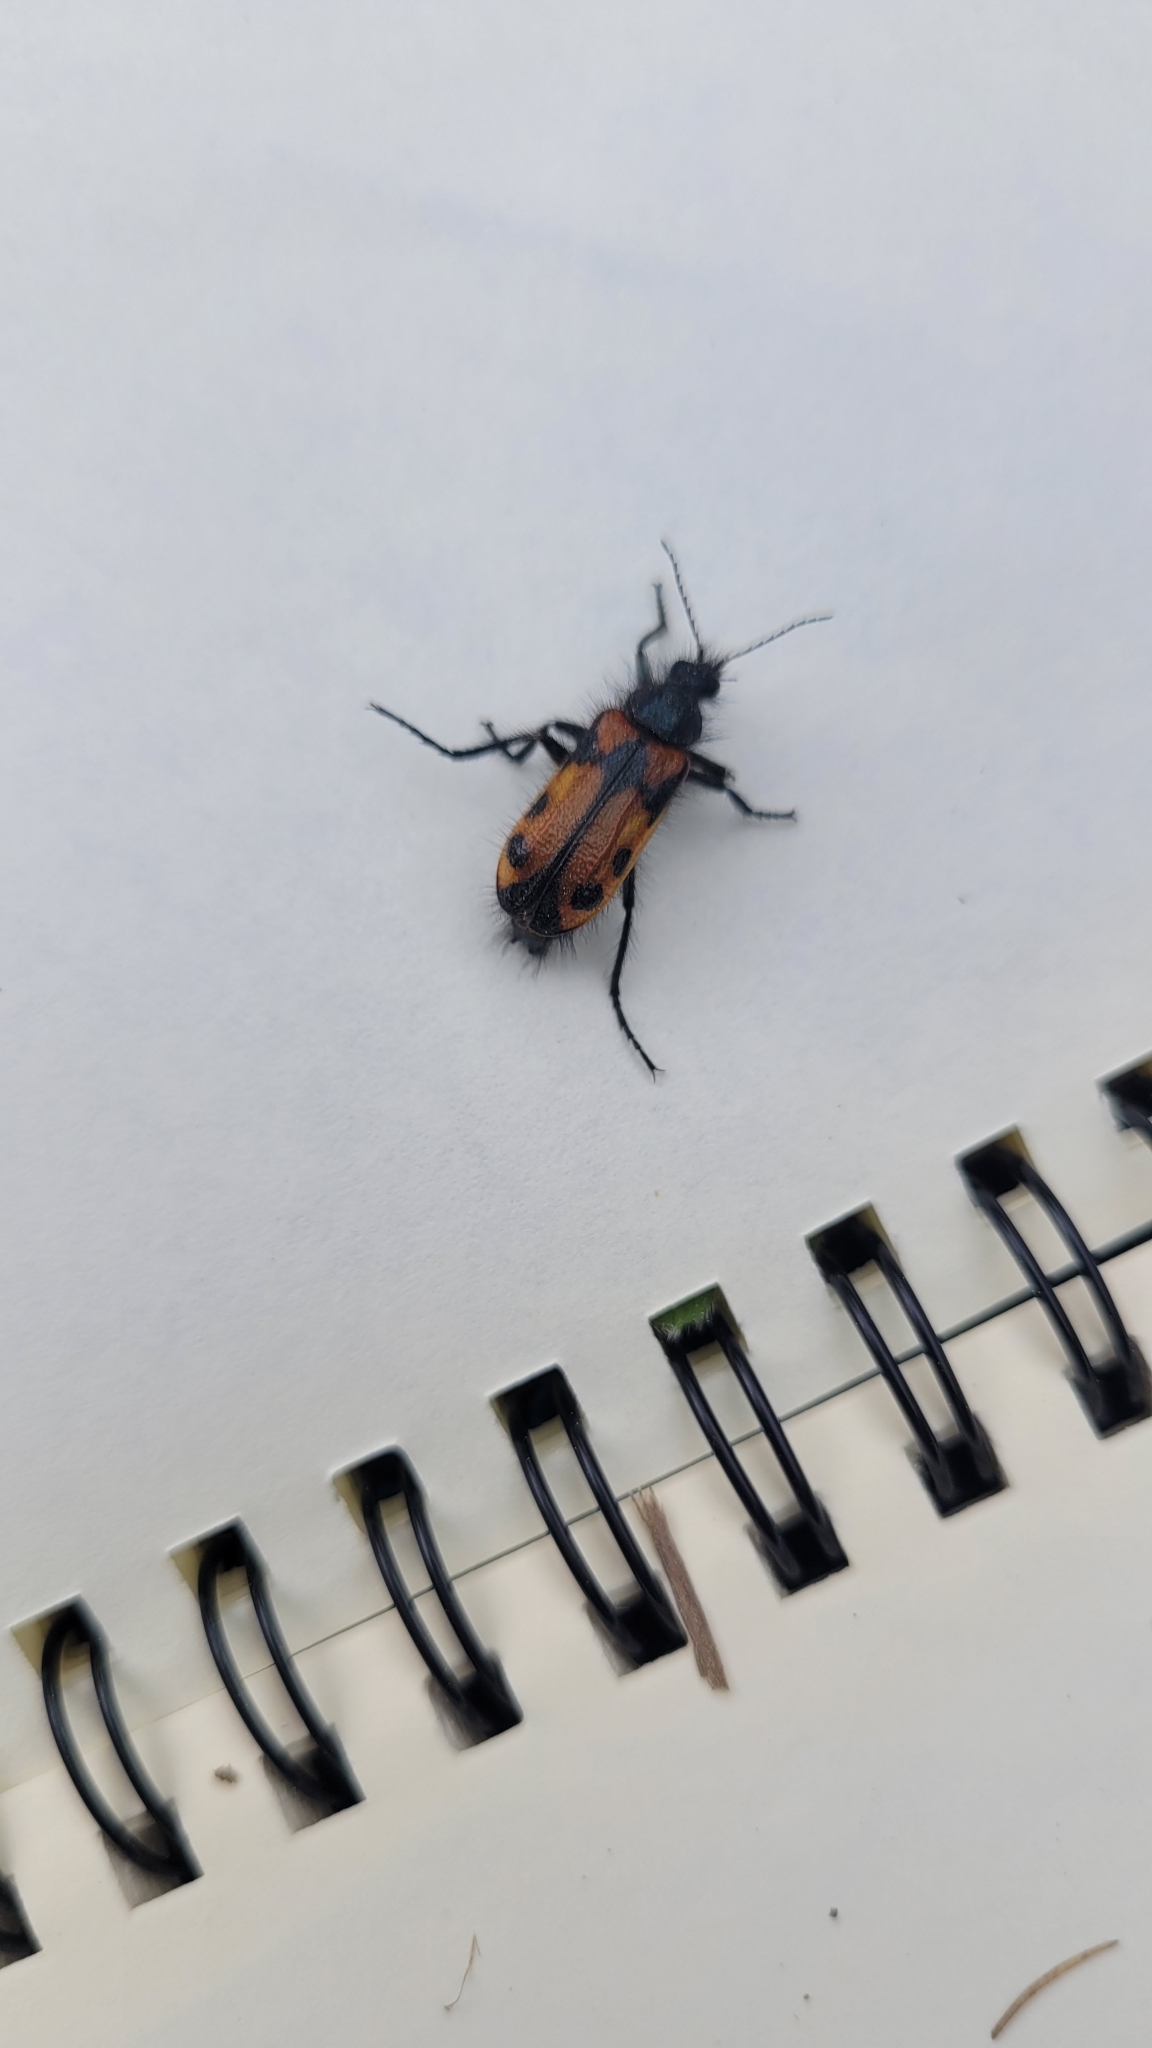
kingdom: Animalia
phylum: Arthropoda
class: Insecta
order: Coleoptera
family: Melyridae
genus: Astylus
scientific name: Astylus
